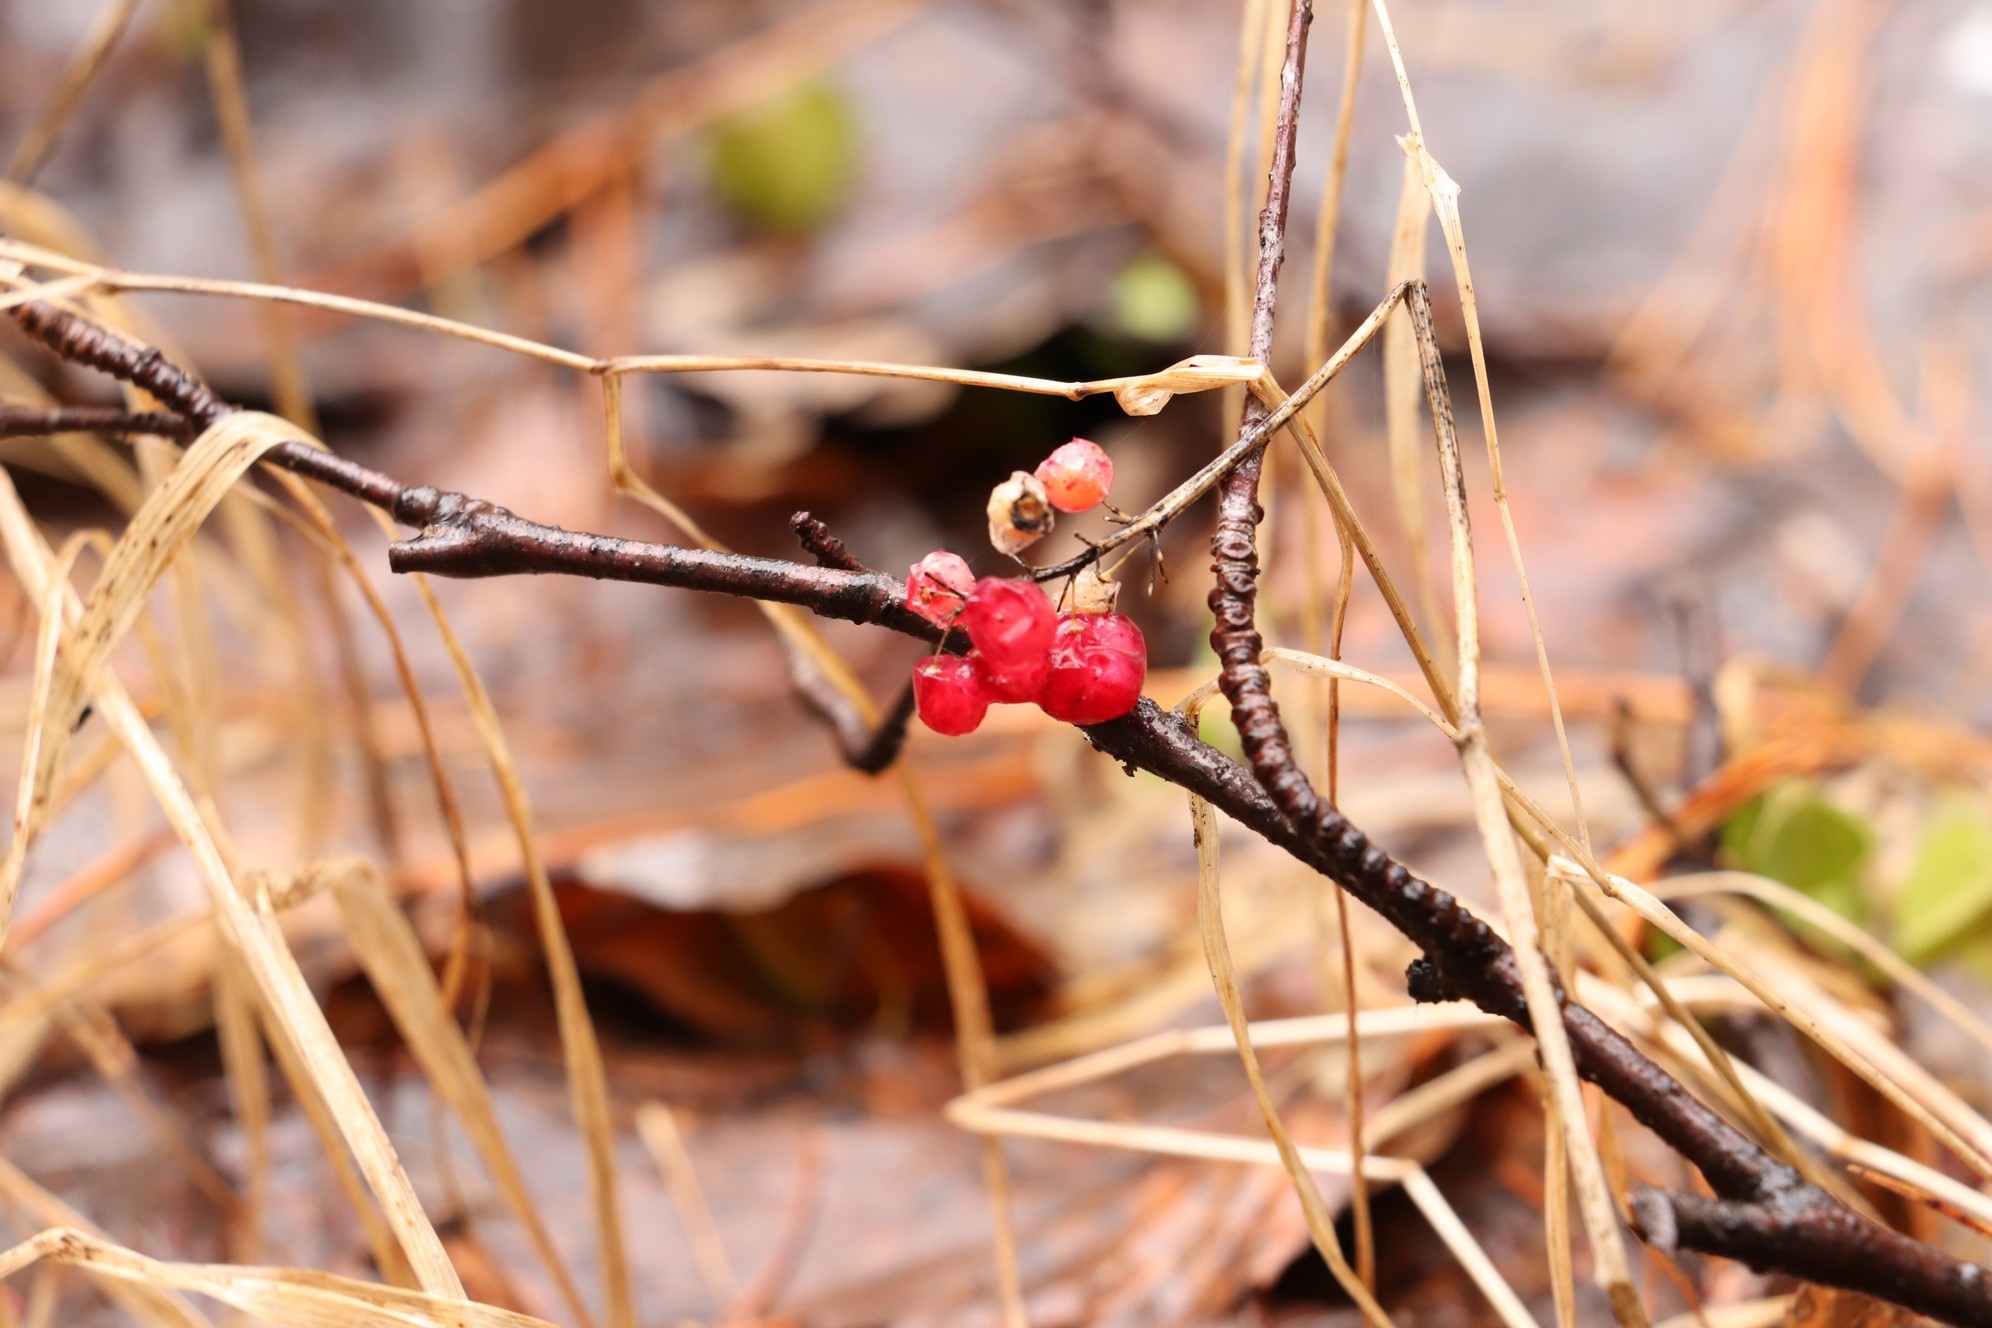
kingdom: Plantae
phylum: Tracheophyta
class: Liliopsida
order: Asparagales
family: Asparagaceae
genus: Maianthemum
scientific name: Maianthemum bifolium
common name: May lily
